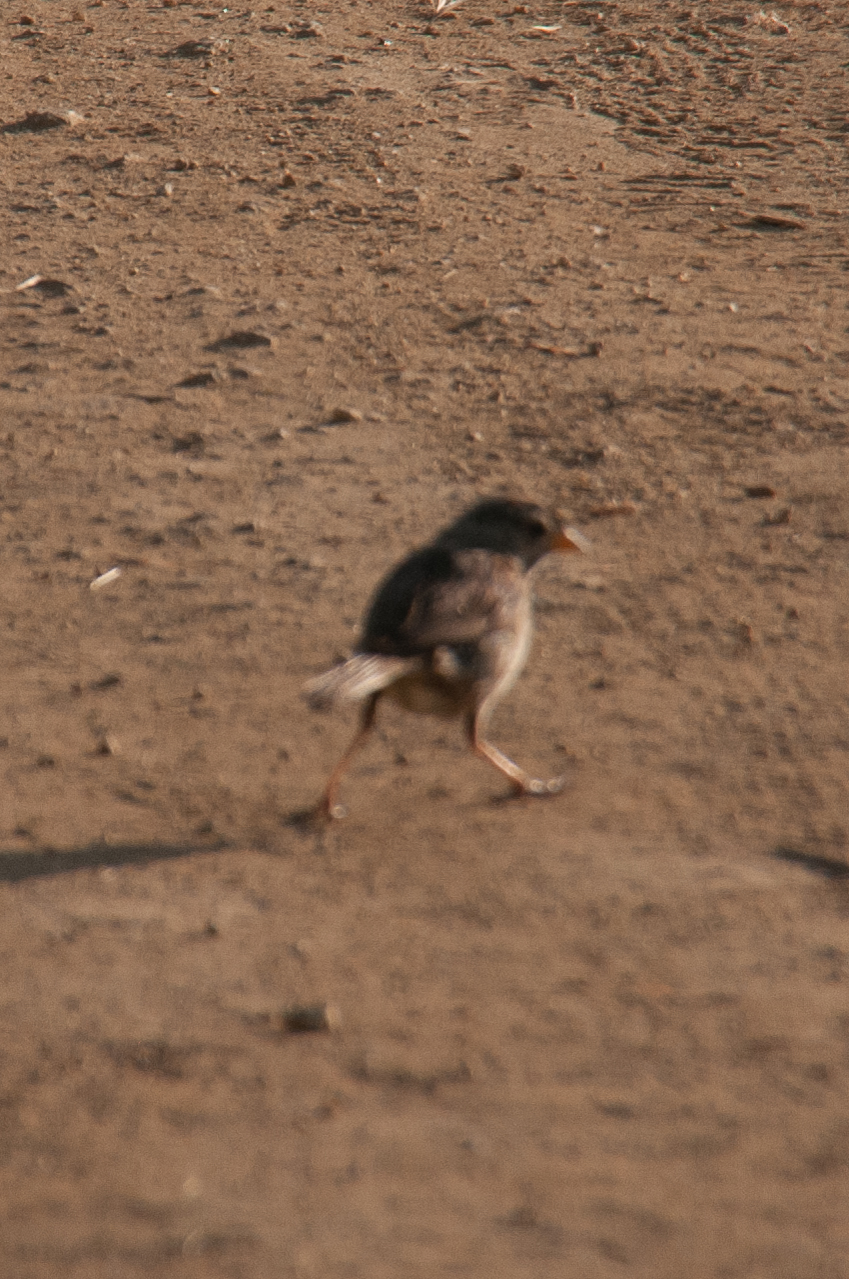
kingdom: Animalia
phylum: Chordata
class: Aves
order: Passeriformes
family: Passerellidae
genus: Zonotrichia
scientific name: Zonotrichia leucophrys
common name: White-crowned sparrow
